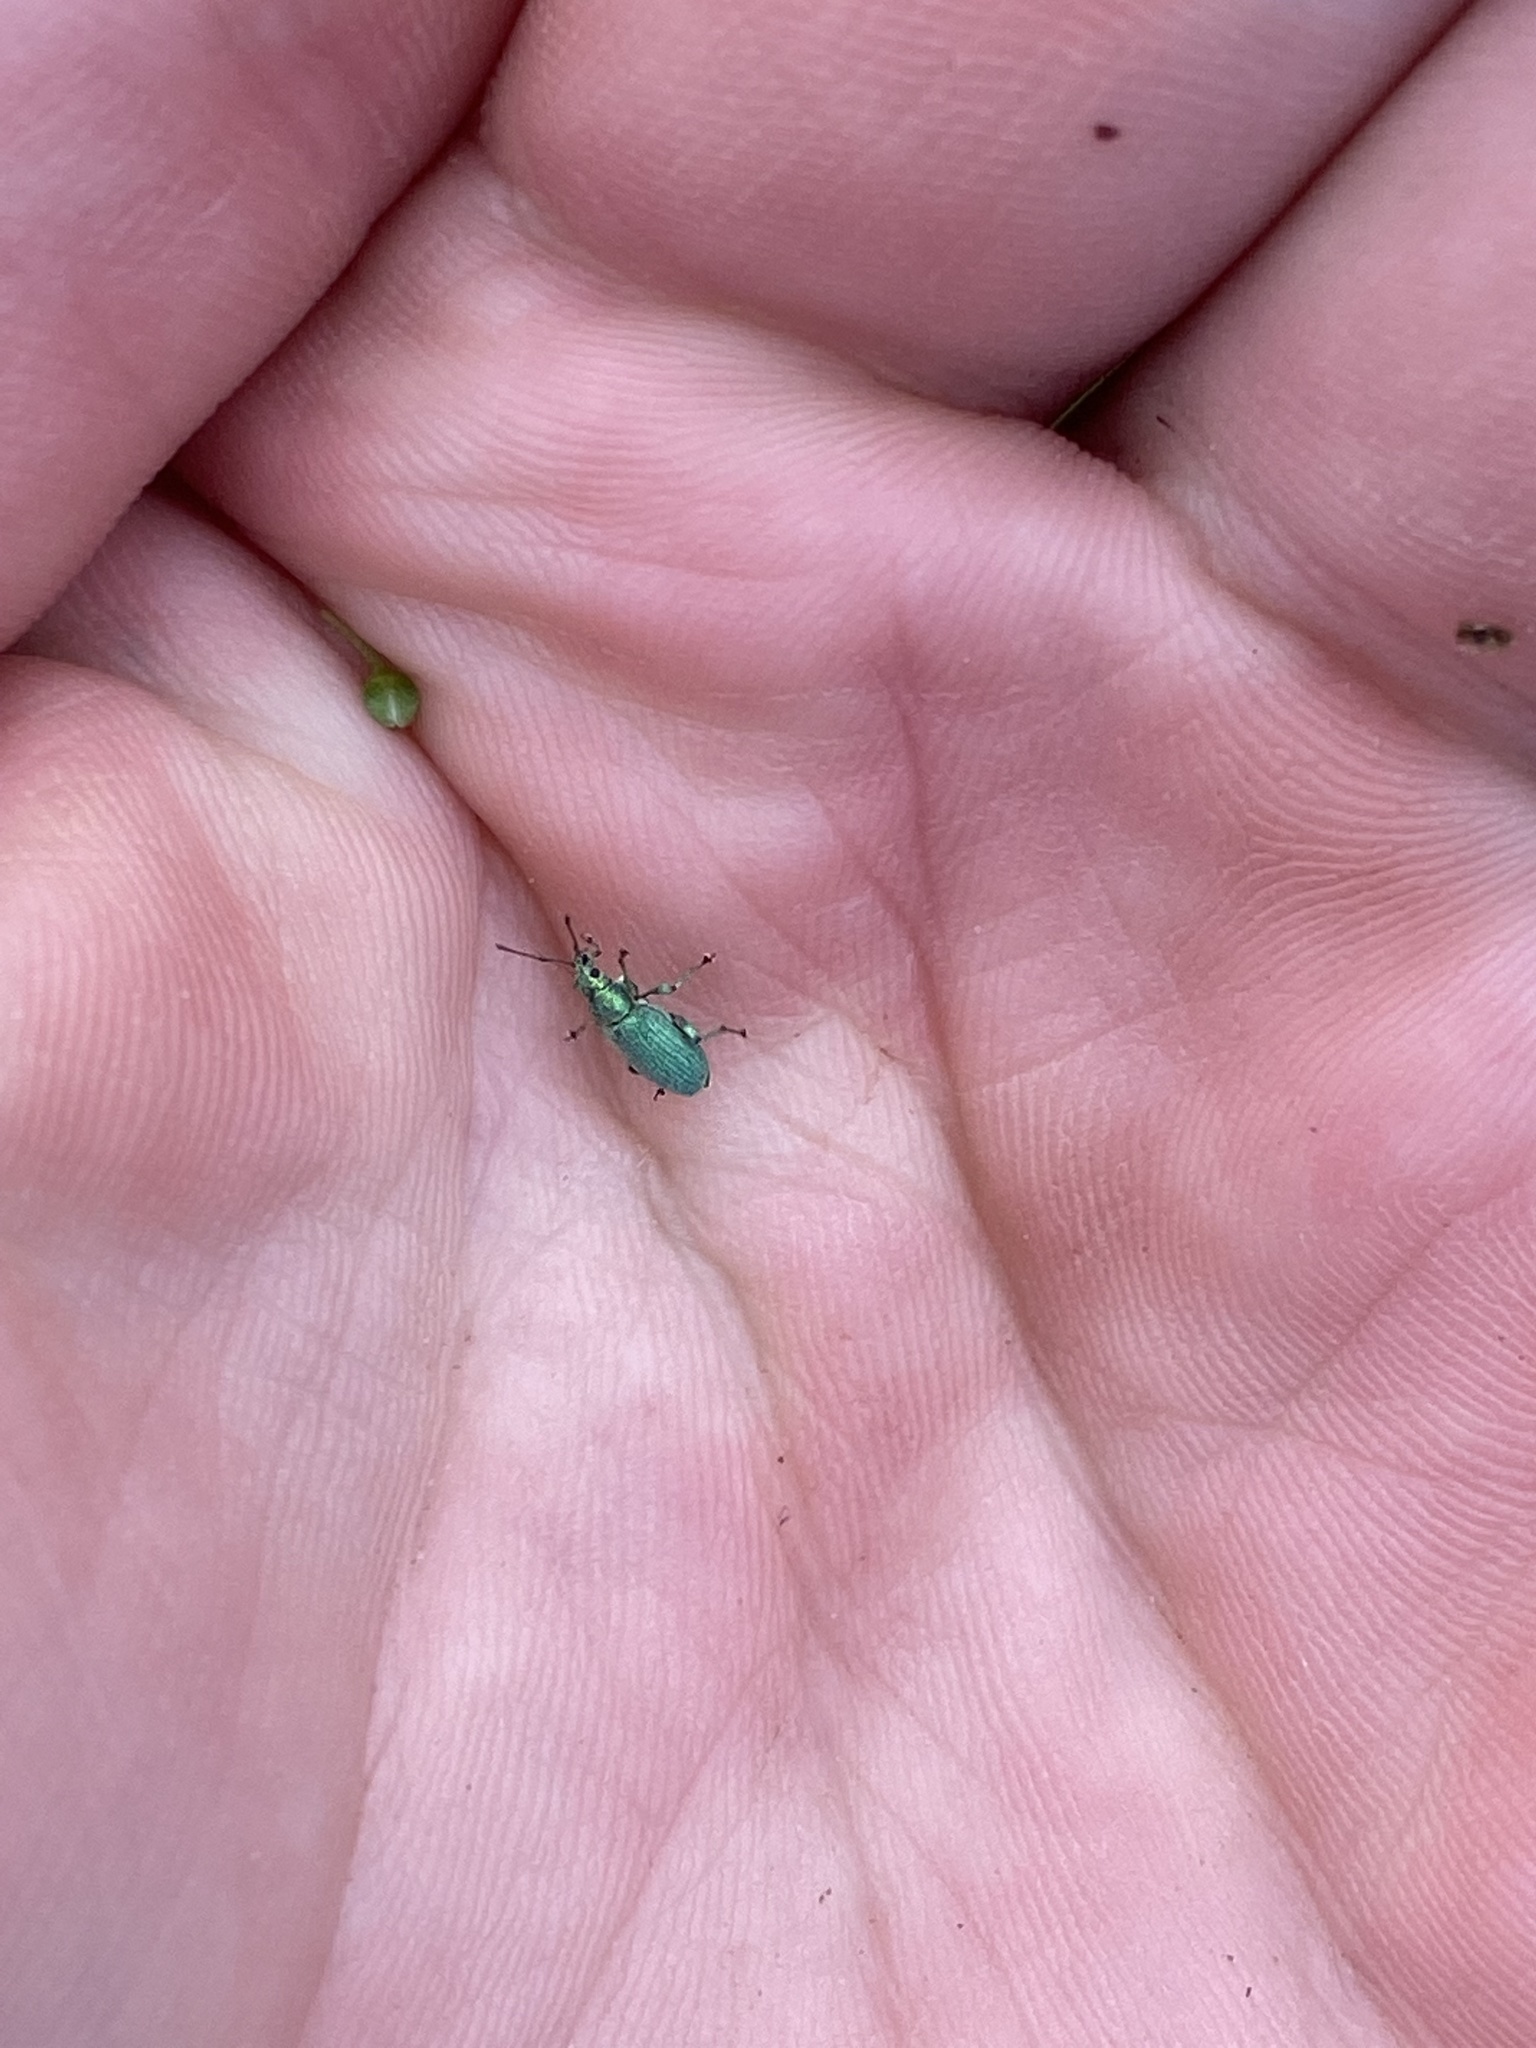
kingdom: Animalia
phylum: Arthropoda
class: Insecta
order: Coleoptera
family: Curculionidae
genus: Phyllobius
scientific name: Phyllobius maculicornis
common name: Green leaf weevil
